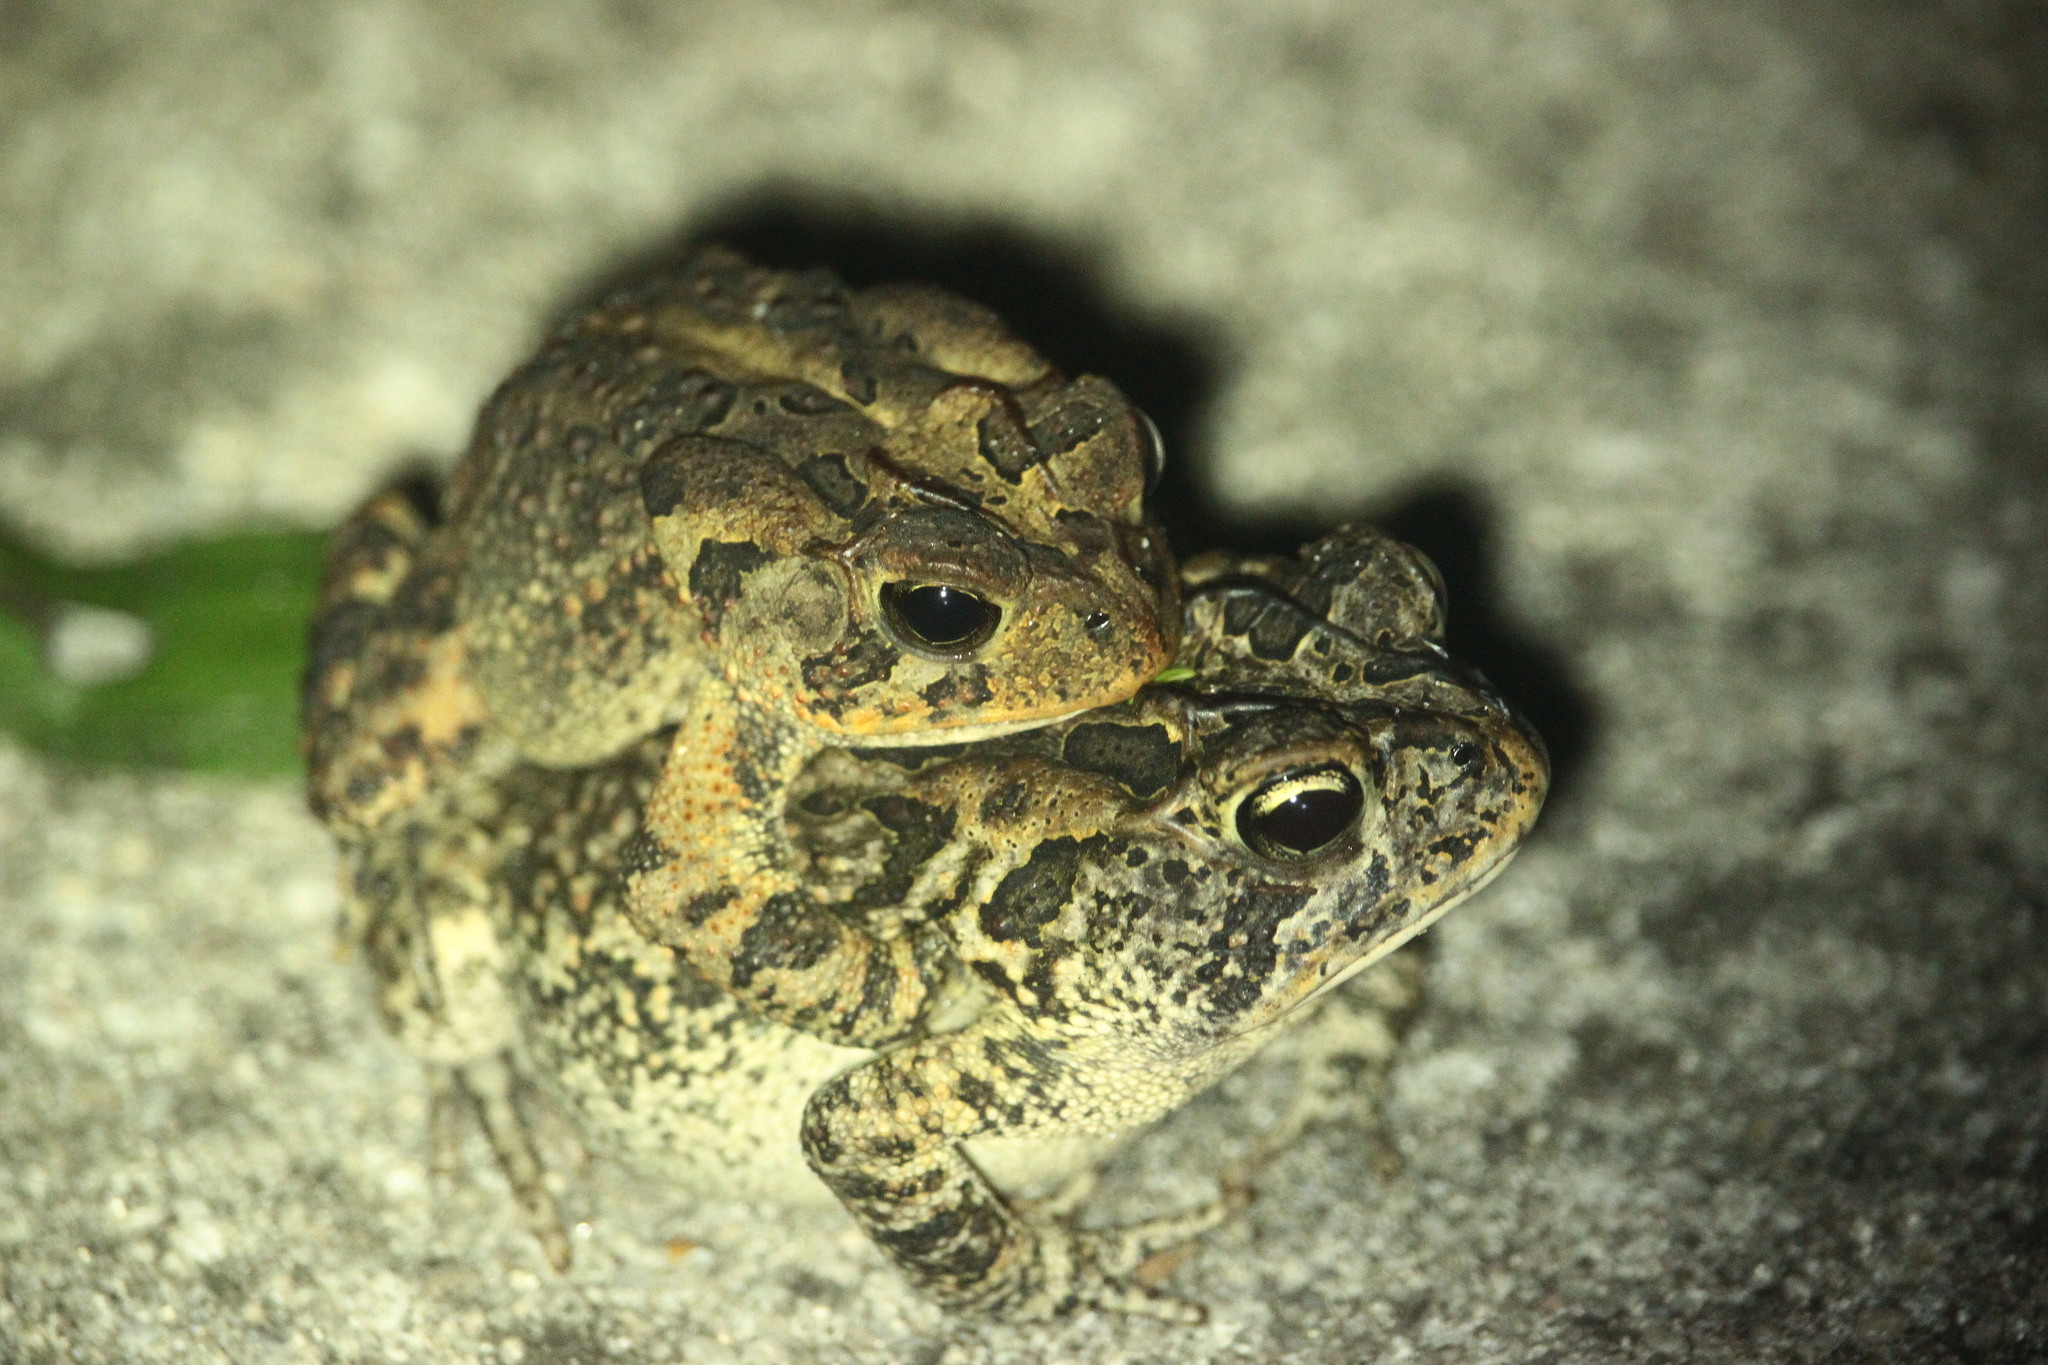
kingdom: Animalia
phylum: Chordata
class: Amphibia
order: Anura
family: Bufonidae
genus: Anaxyrus
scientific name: Anaxyrus terrestris
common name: Southern toad
